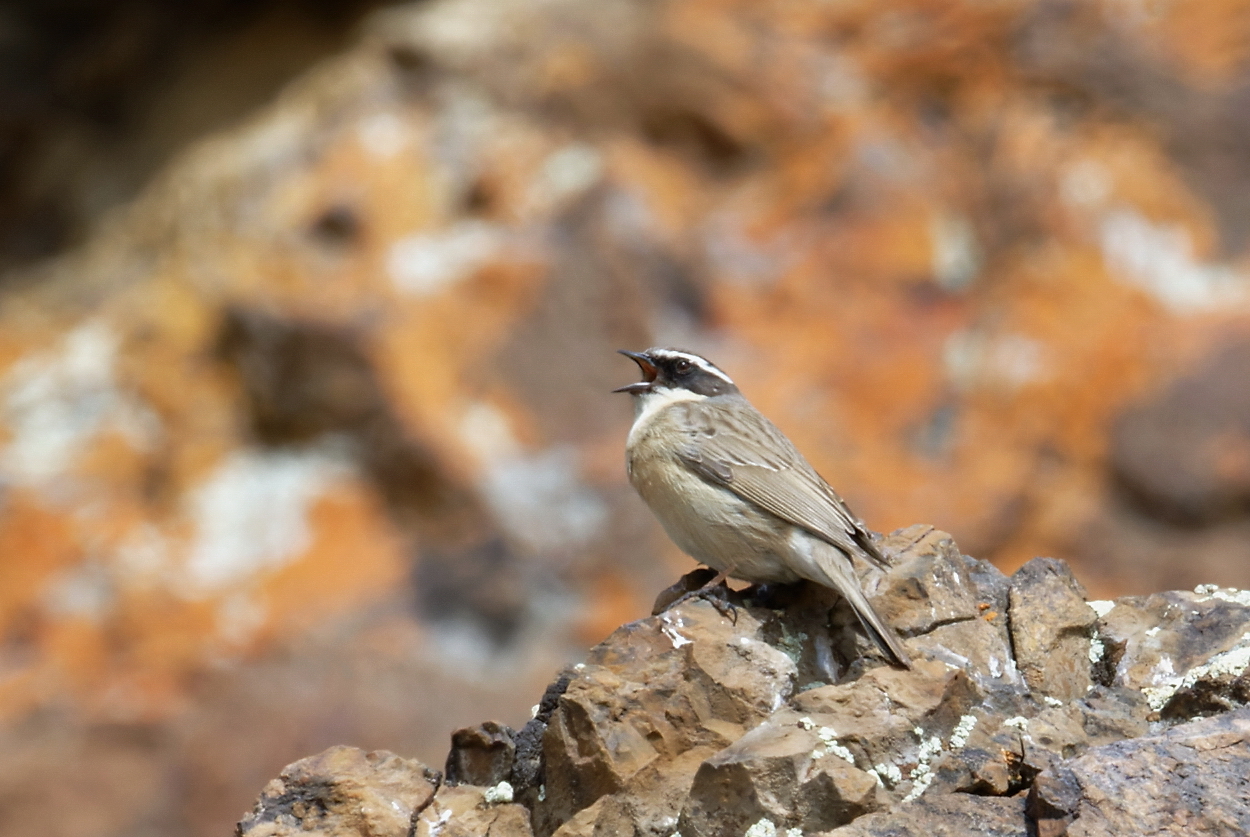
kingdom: Animalia
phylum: Chordata
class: Aves
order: Passeriformes
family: Prunellidae
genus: Prunella
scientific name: Prunella fulvescens
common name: Brown accentor
